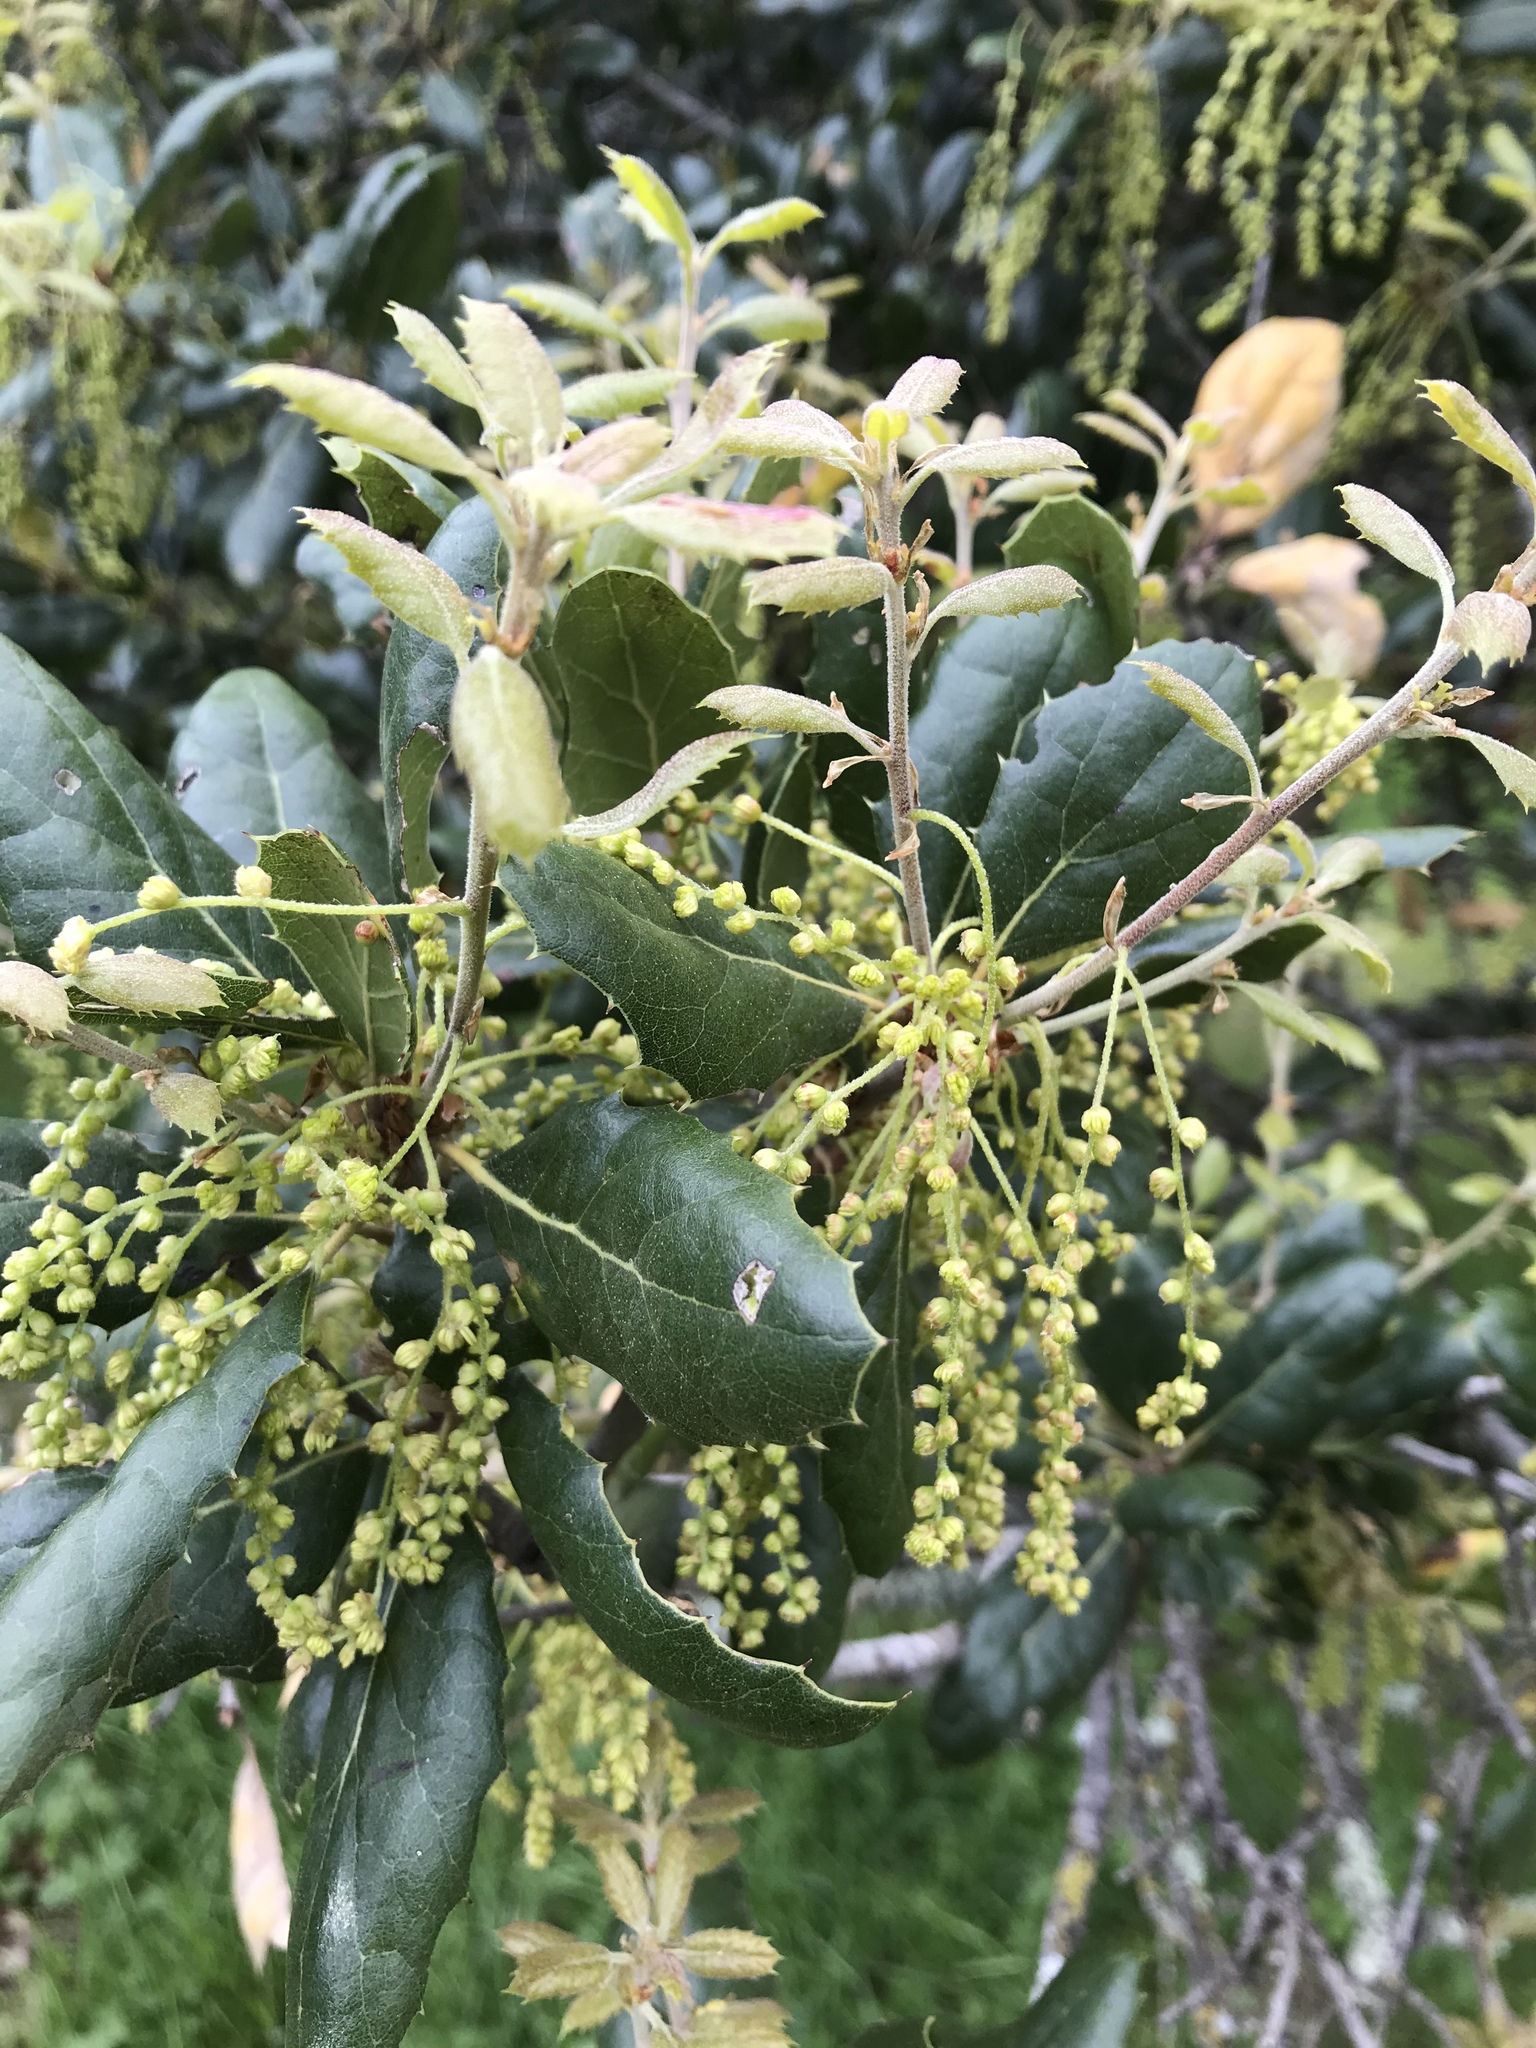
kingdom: Plantae
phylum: Tracheophyta
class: Magnoliopsida
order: Fagales
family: Fagaceae
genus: Quercus
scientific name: Quercus agrifolia
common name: California live oak
